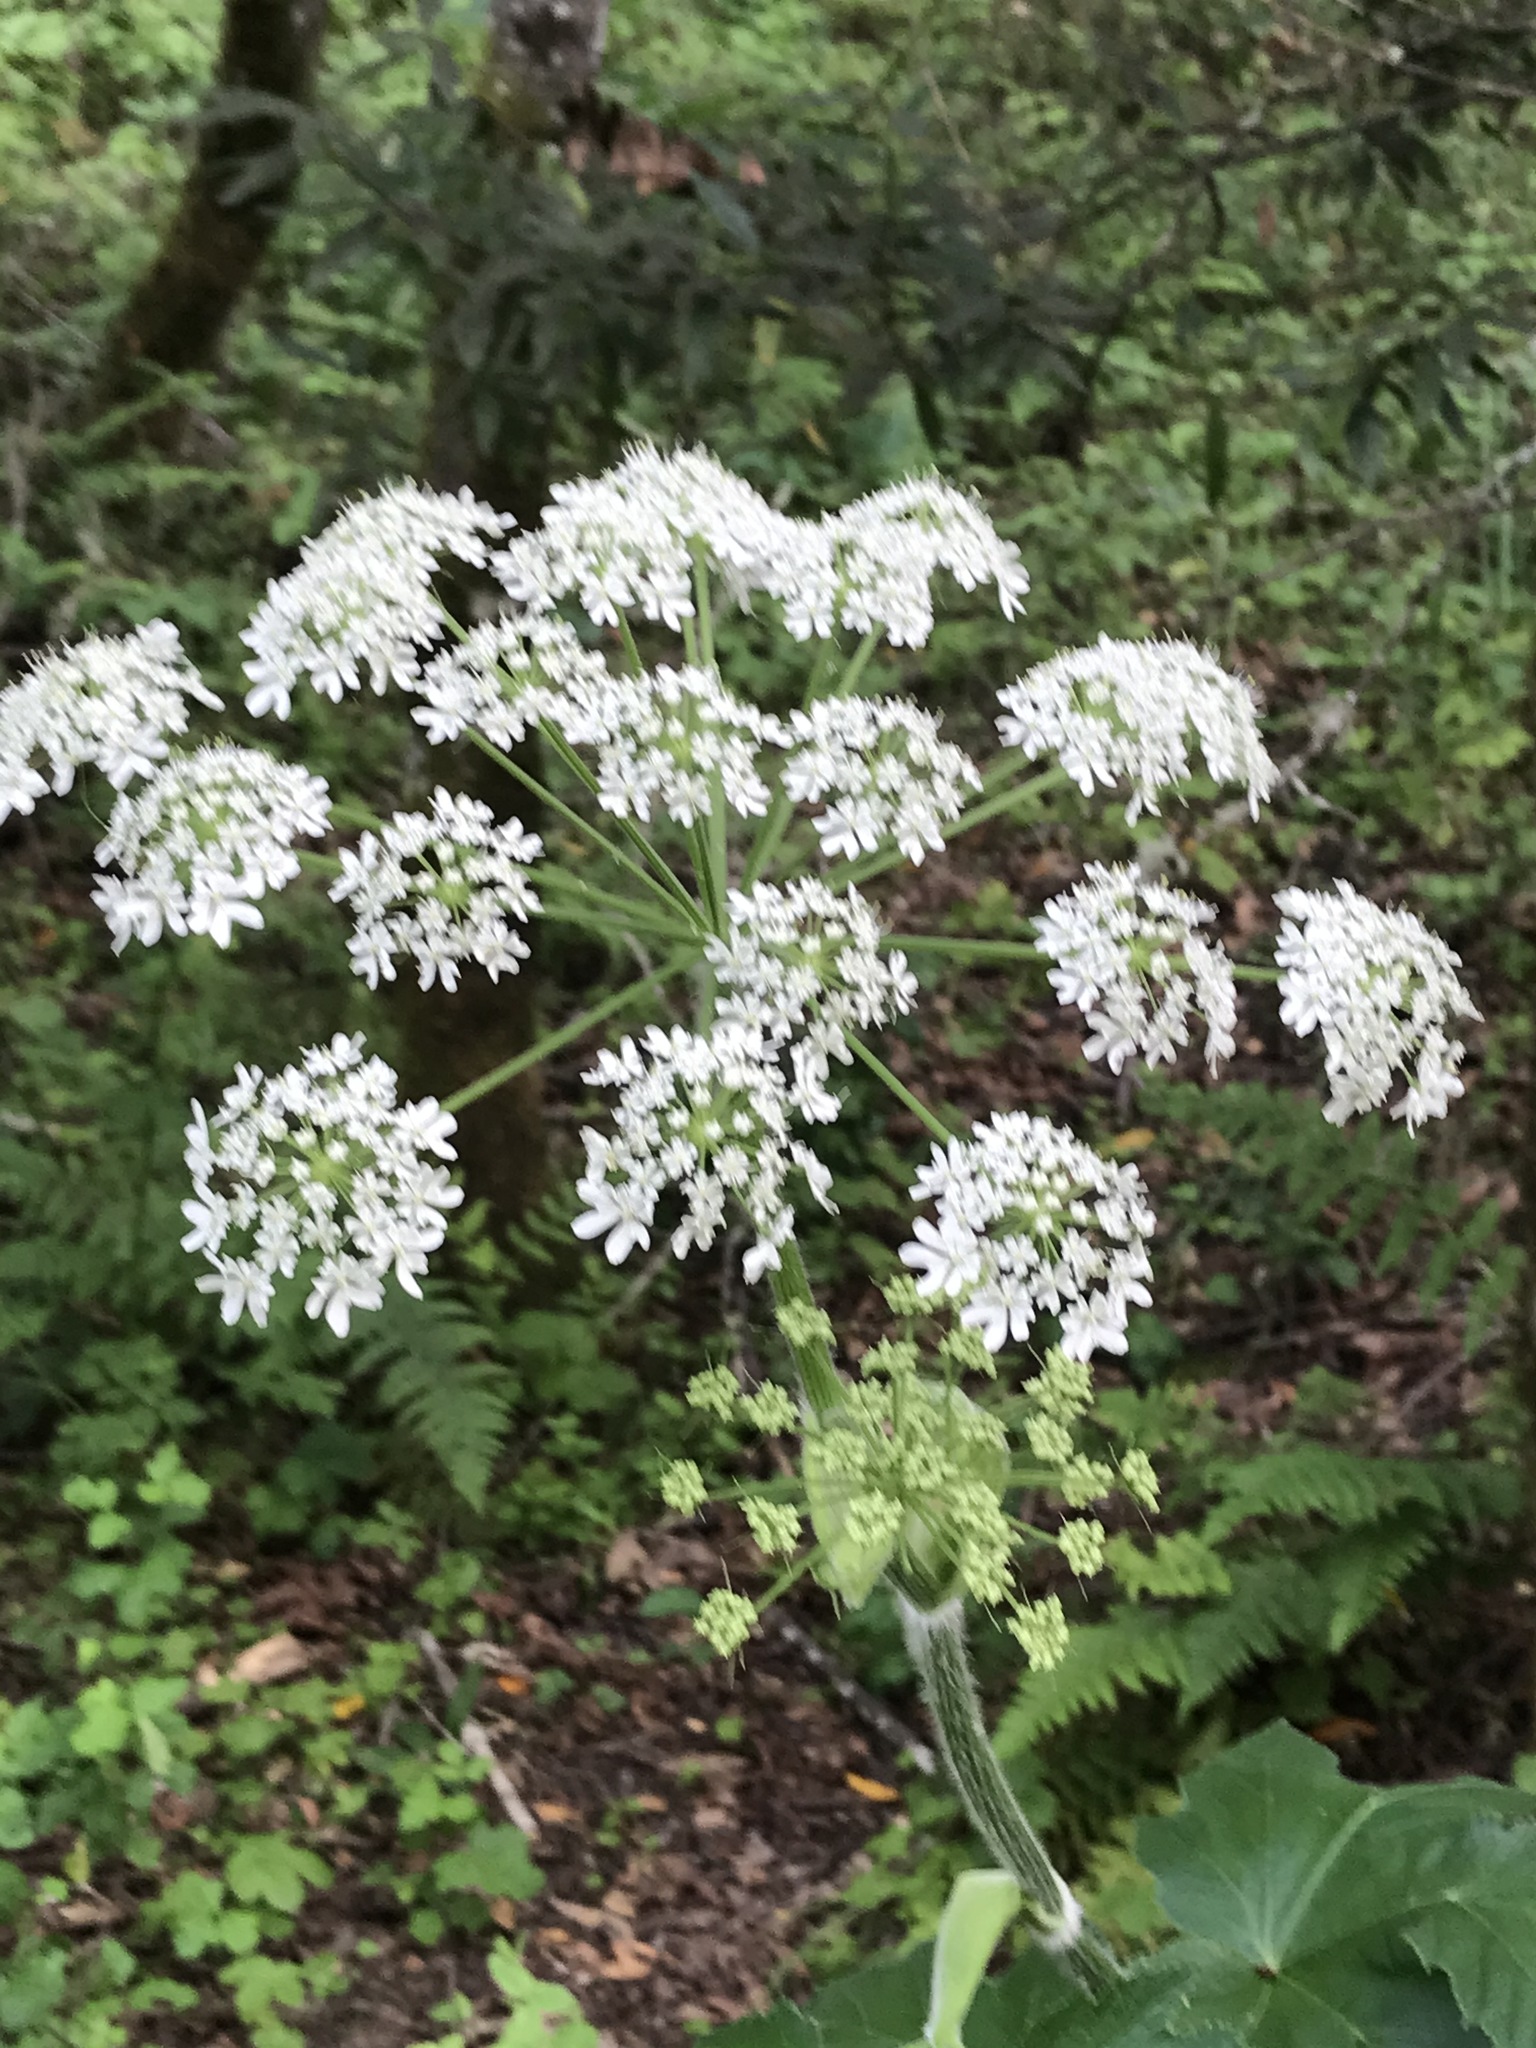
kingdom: Plantae
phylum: Tracheophyta
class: Magnoliopsida
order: Apiales
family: Apiaceae
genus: Heracleum
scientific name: Heracleum maximum
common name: American cow parsnip
